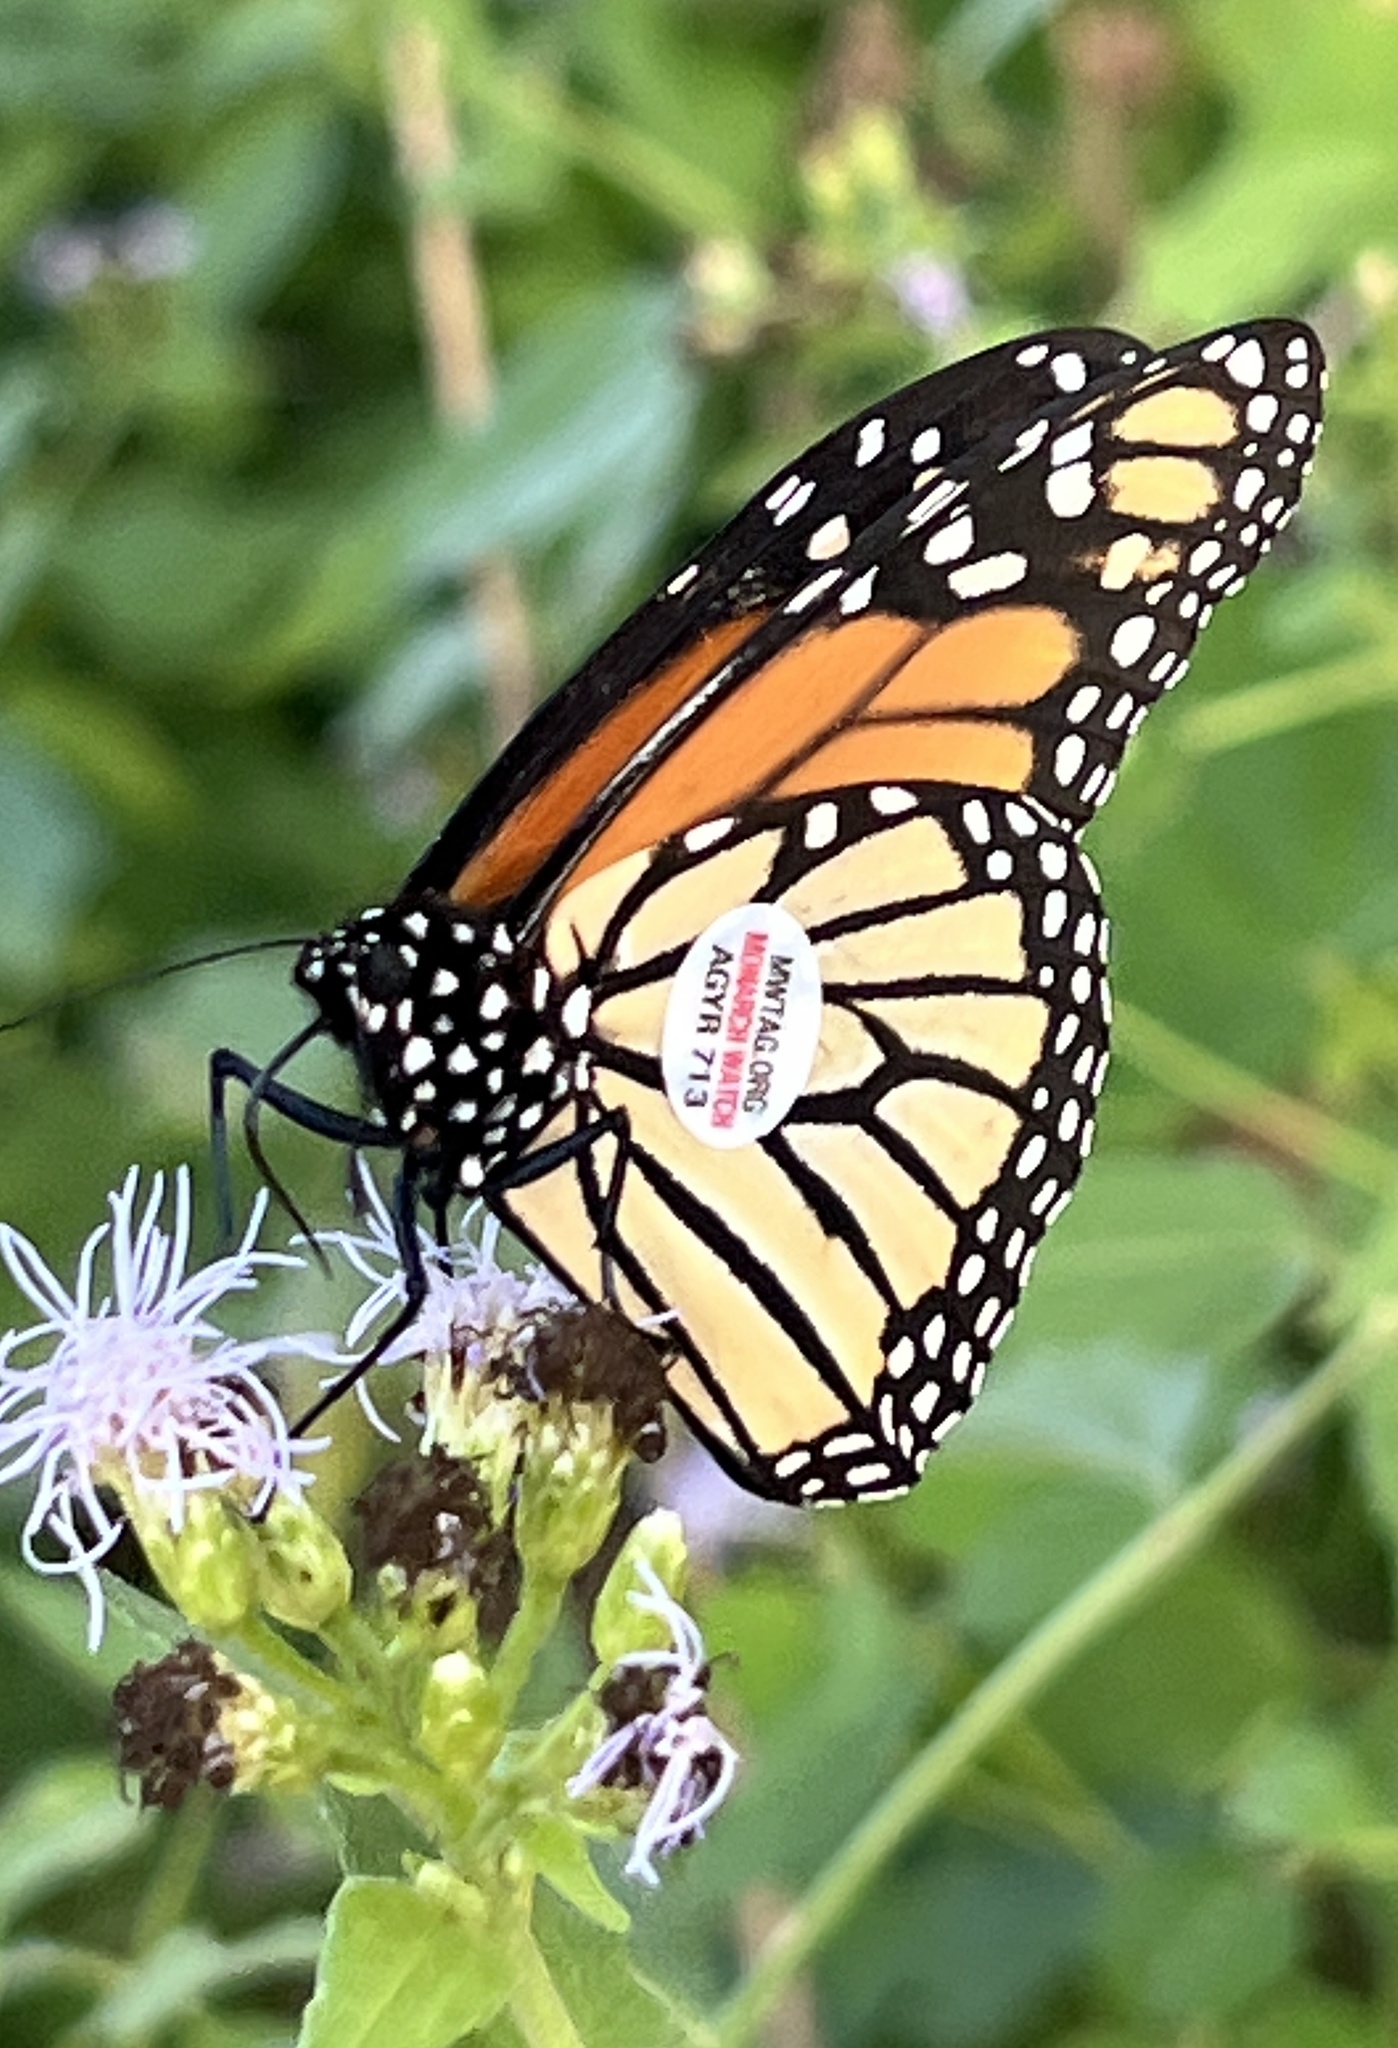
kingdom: Animalia
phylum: Arthropoda
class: Insecta
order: Lepidoptera
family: Nymphalidae
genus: Danaus
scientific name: Danaus plexippus
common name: Monarch
